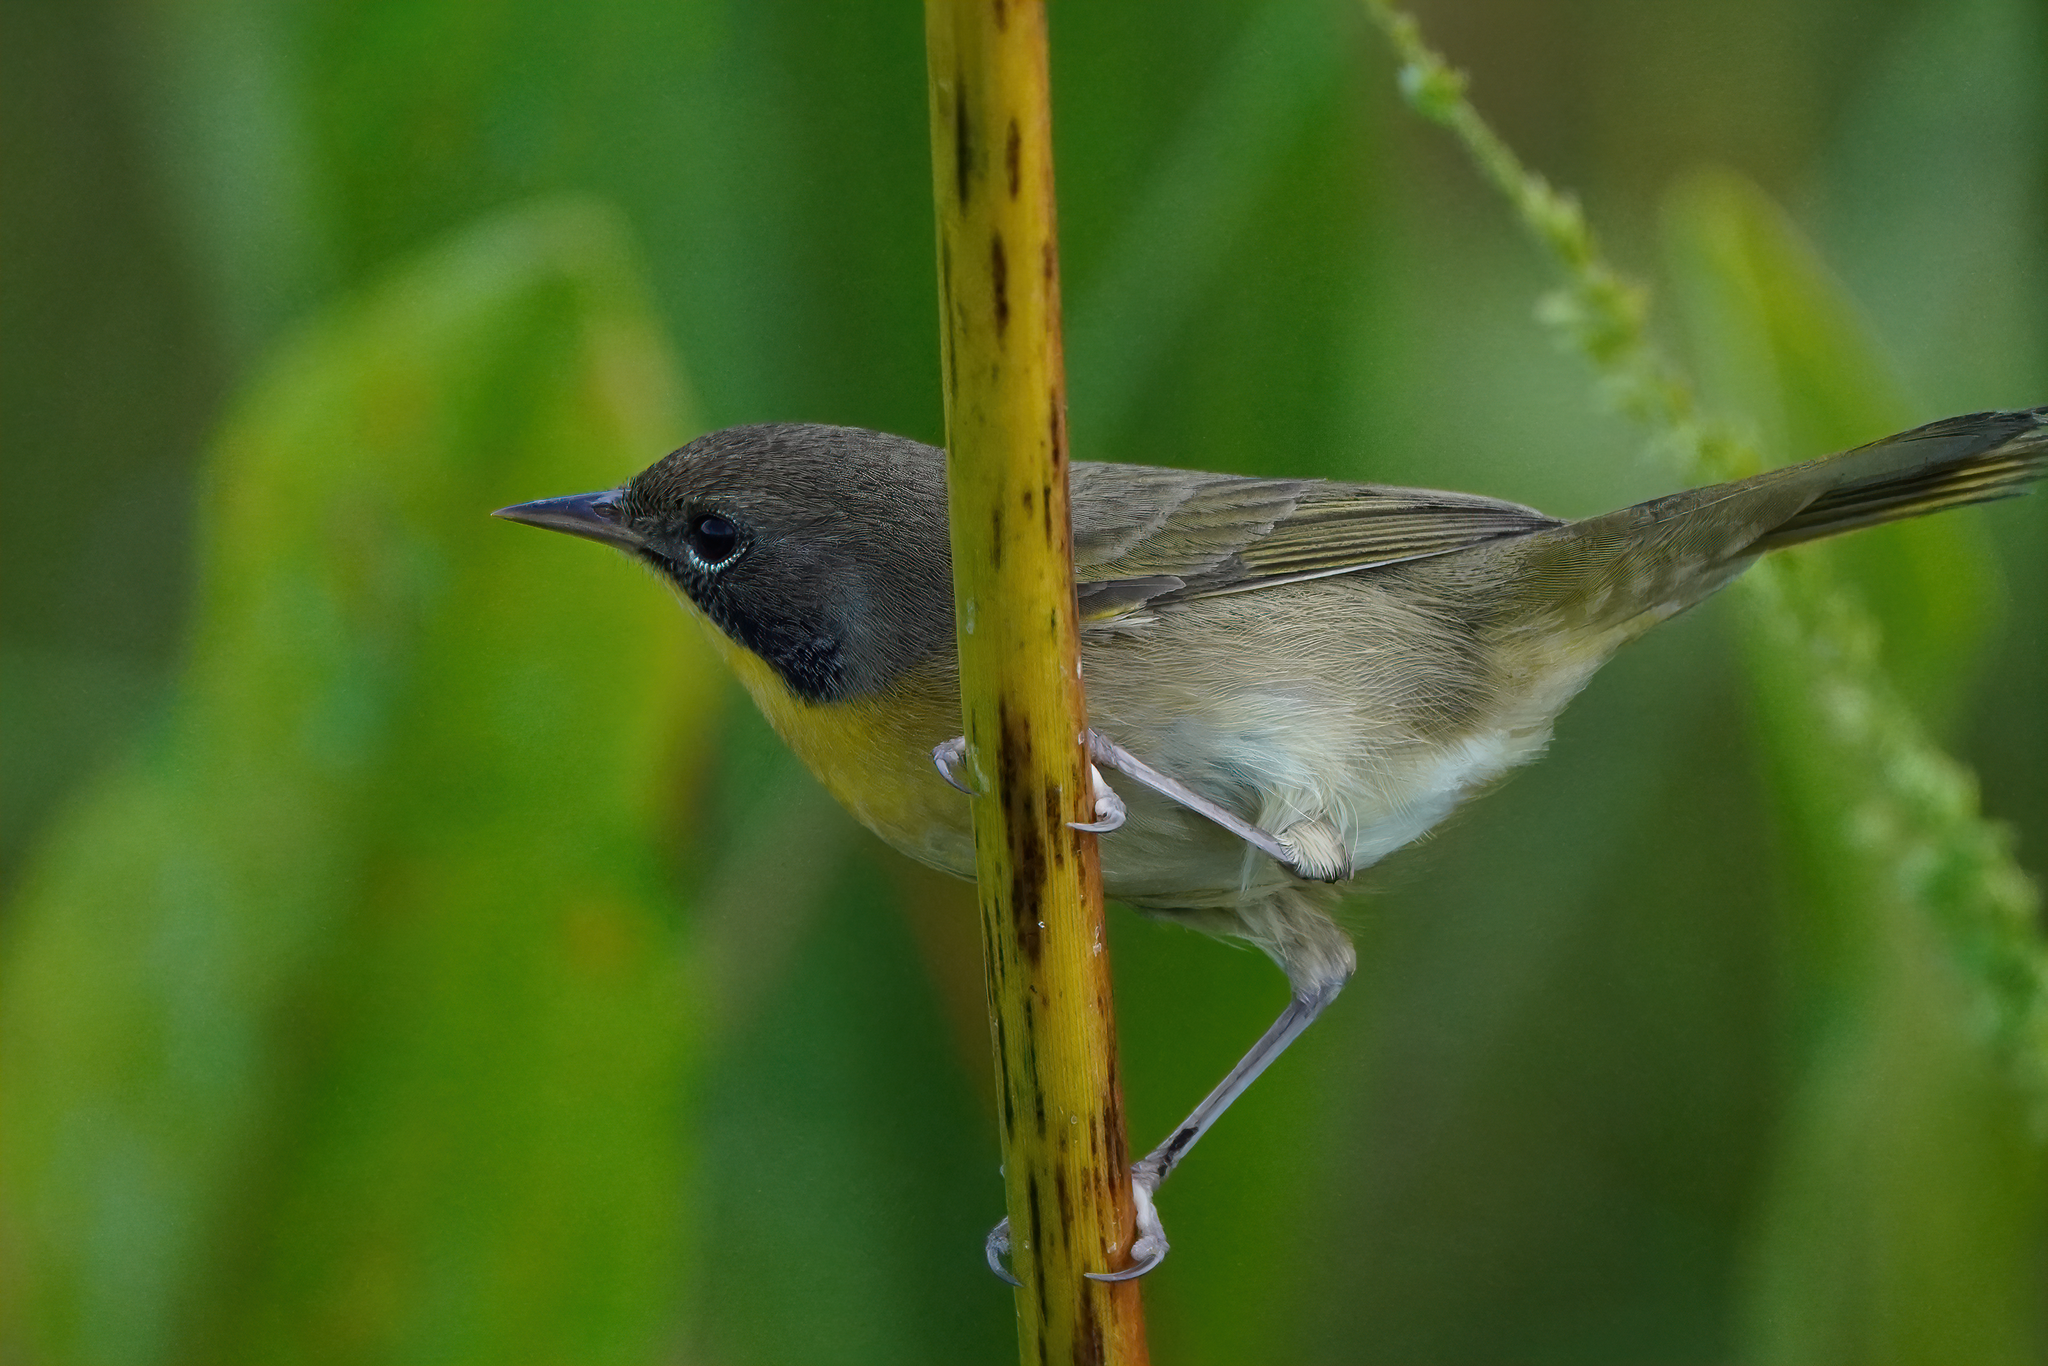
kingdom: Animalia
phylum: Chordata
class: Aves
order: Passeriformes
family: Parulidae
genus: Geothlypis
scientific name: Geothlypis trichas
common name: Common yellowthroat
